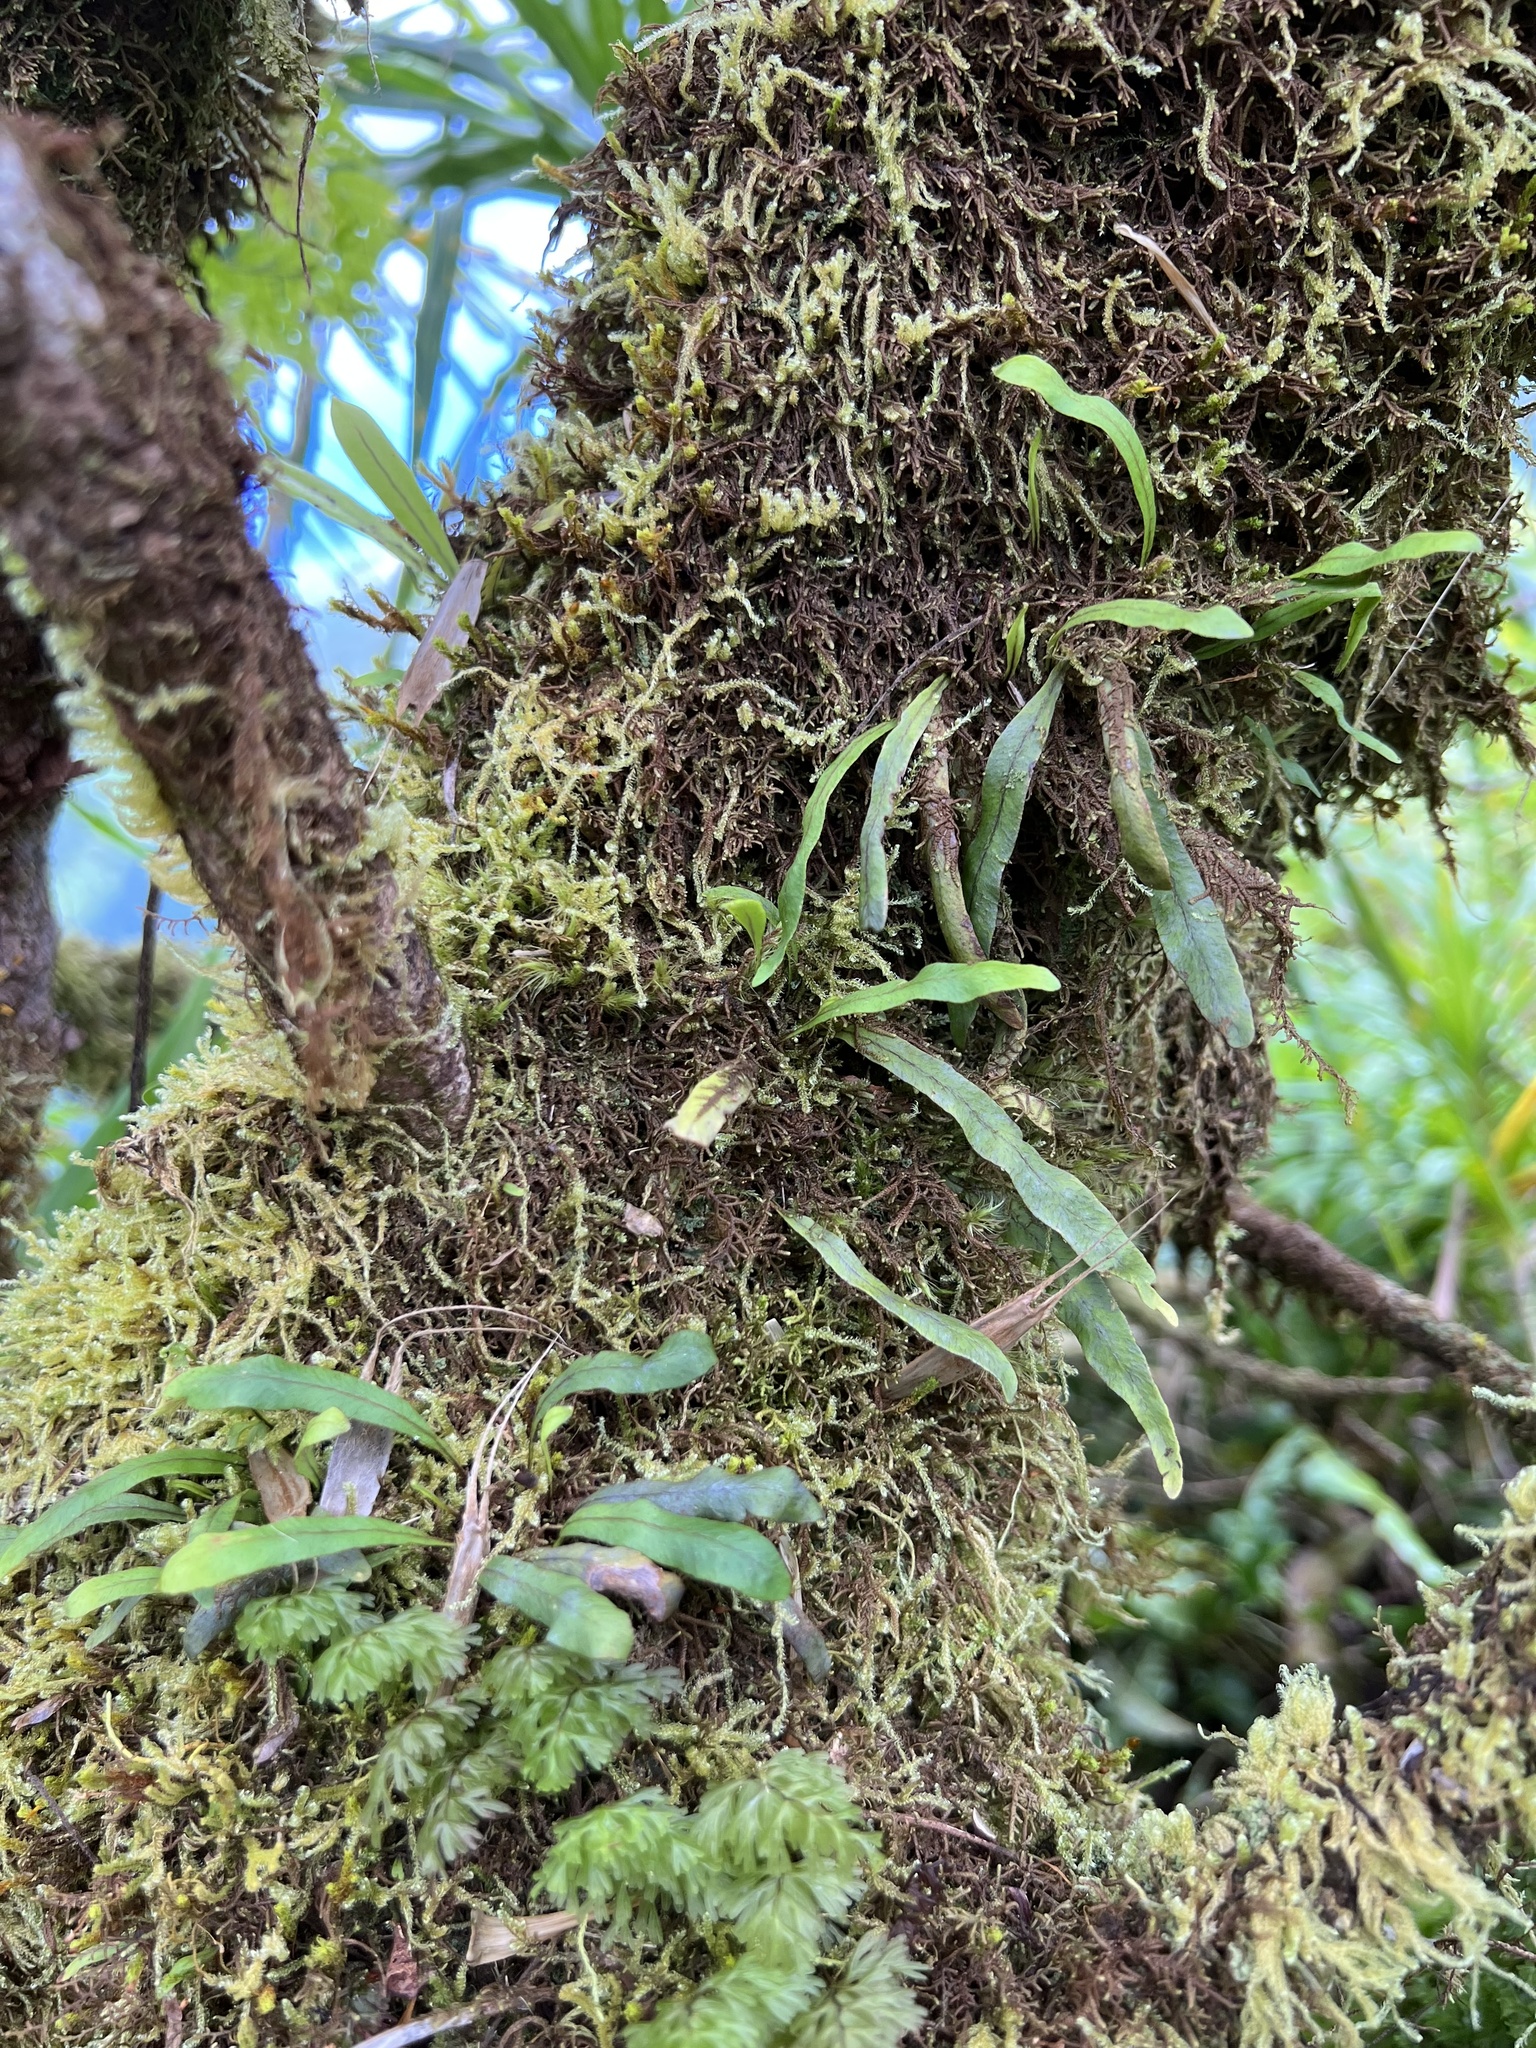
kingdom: Plantae
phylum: Tracheophyta
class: Polypodiopsida
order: Polypodiales
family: Polypodiaceae
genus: Oreogrammitis
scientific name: Oreogrammitis cheesemanii
